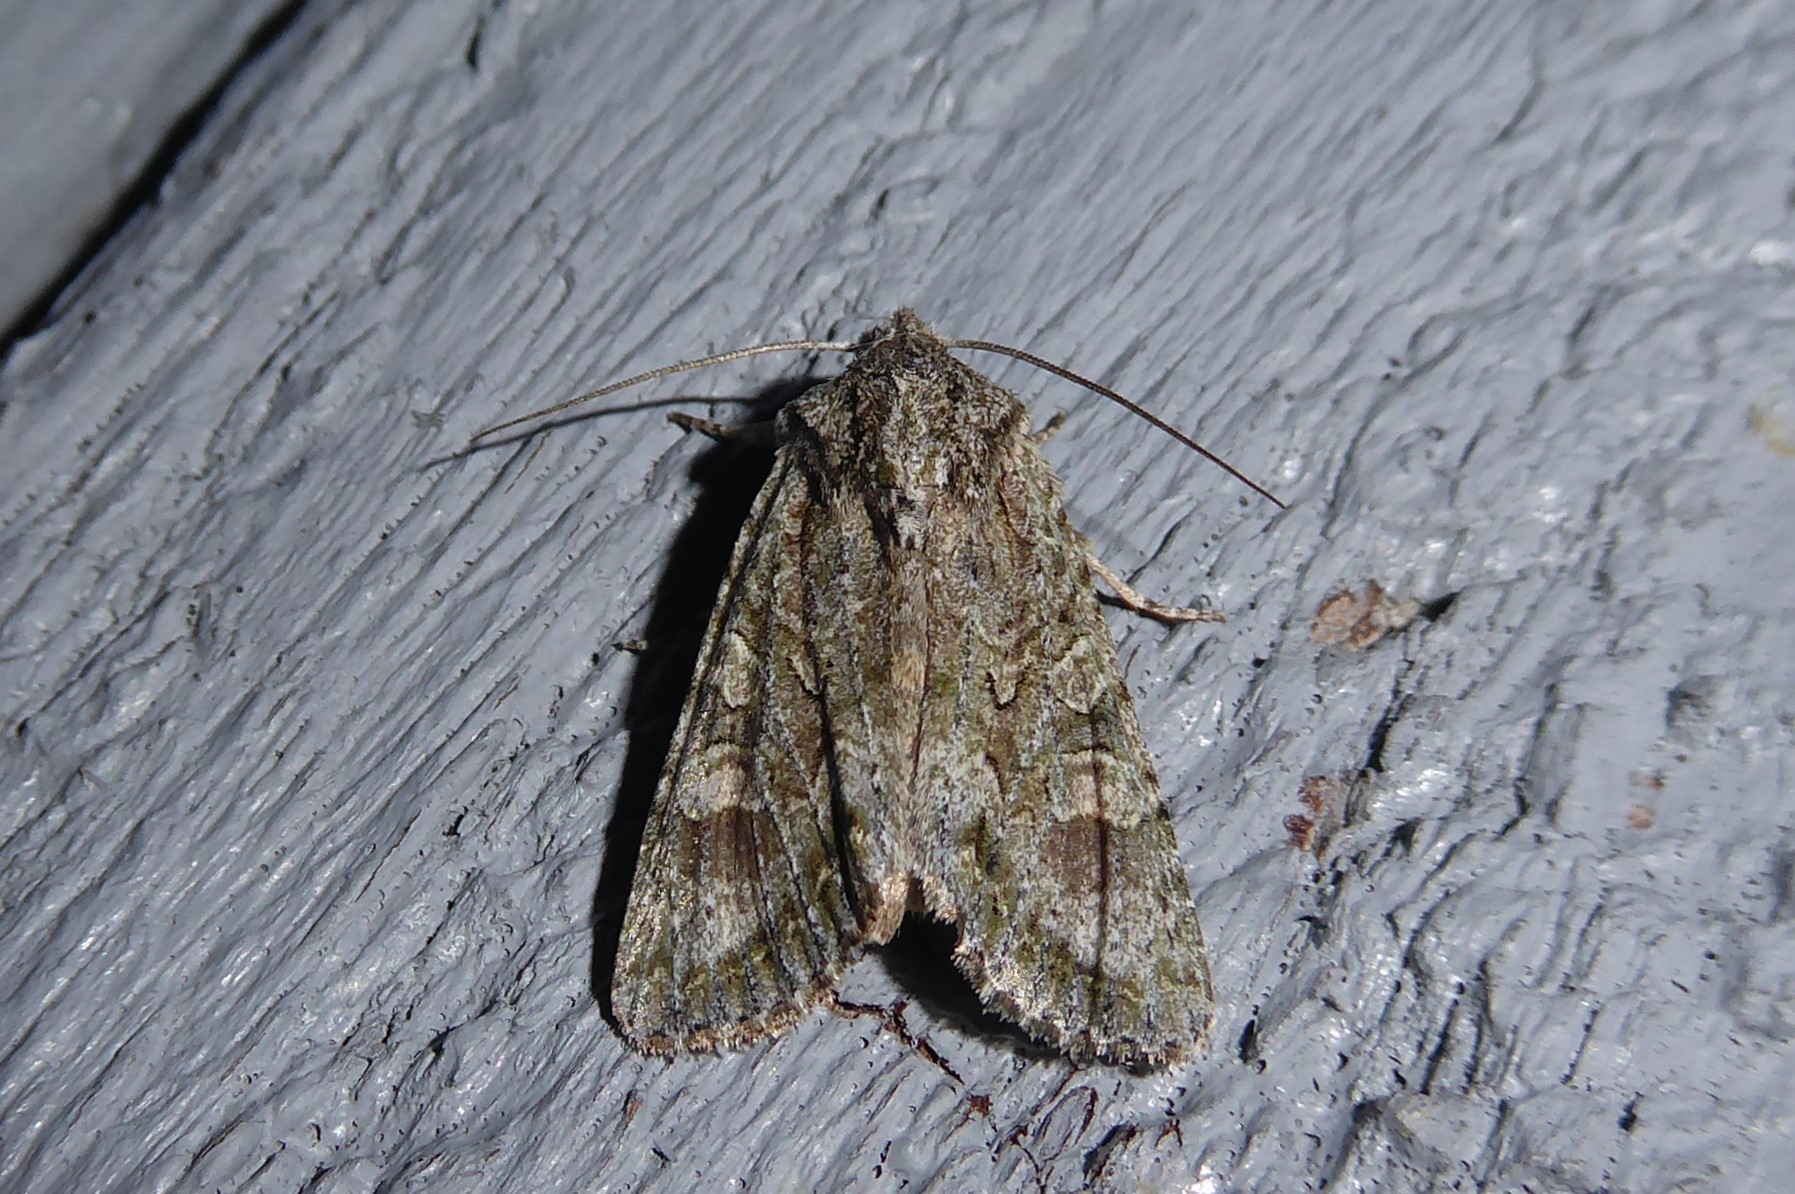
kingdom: Animalia
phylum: Arthropoda
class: Insecta
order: Lepidoptera
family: Noctuidae
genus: Ichneutica
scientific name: Ichneutica mutans
